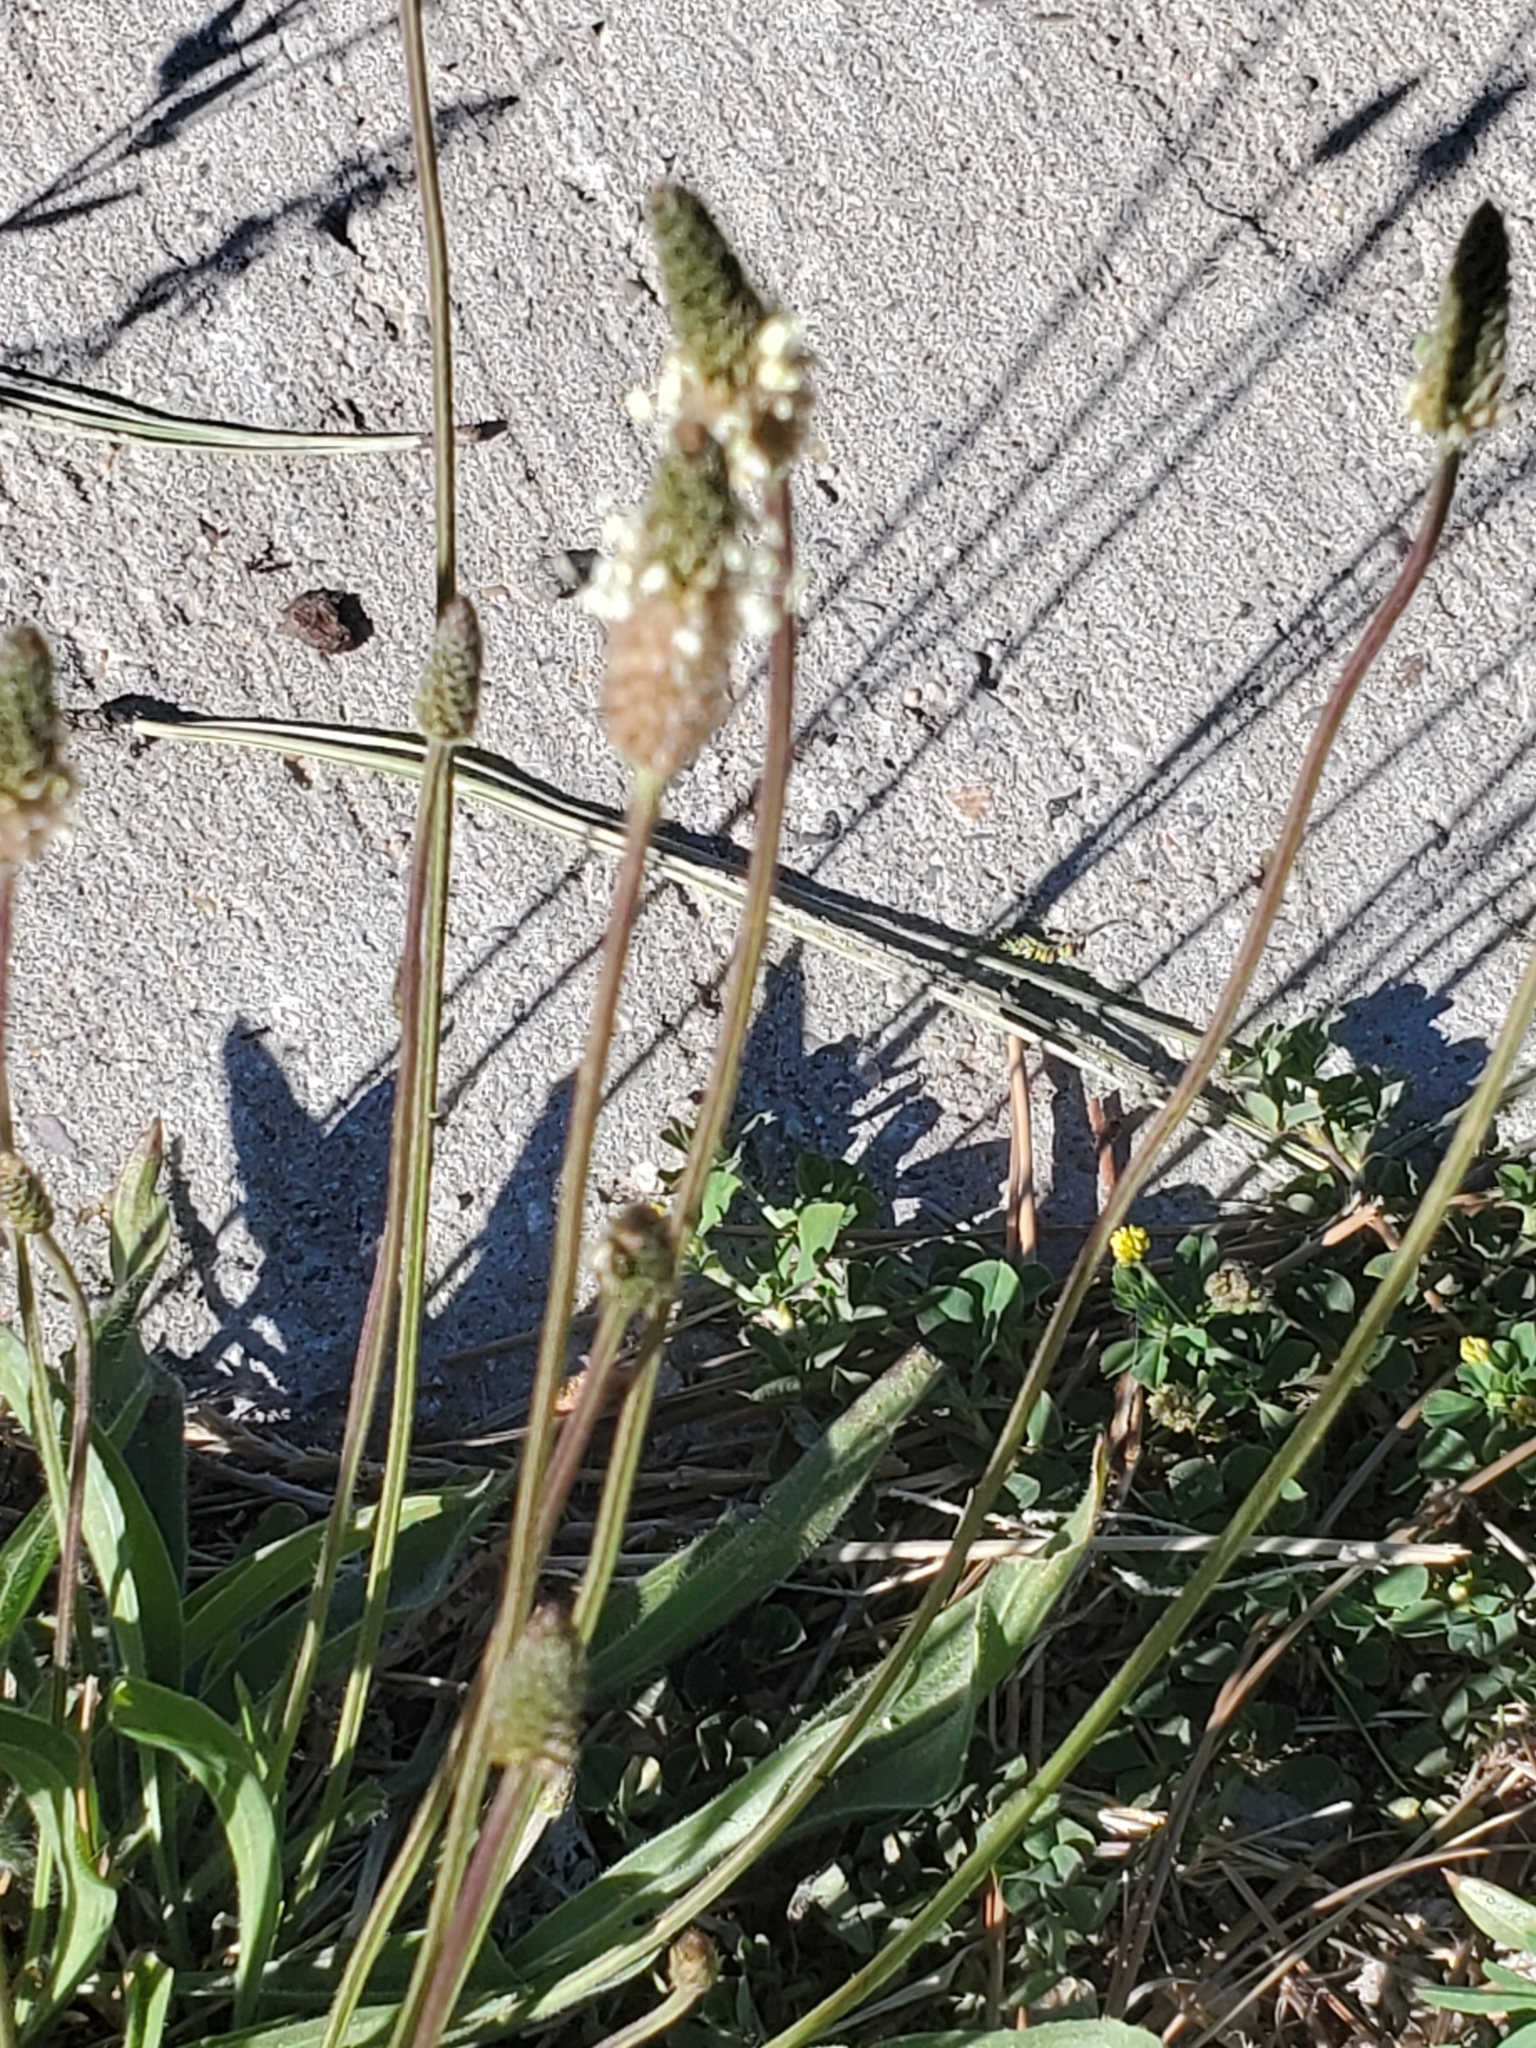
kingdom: Plantae
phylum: Tracheophyta
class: Magnoliopsida
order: Lamiales
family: Plantaginaceae
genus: Plantago
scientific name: Plantago lanceolata
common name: Ribwort plantain
